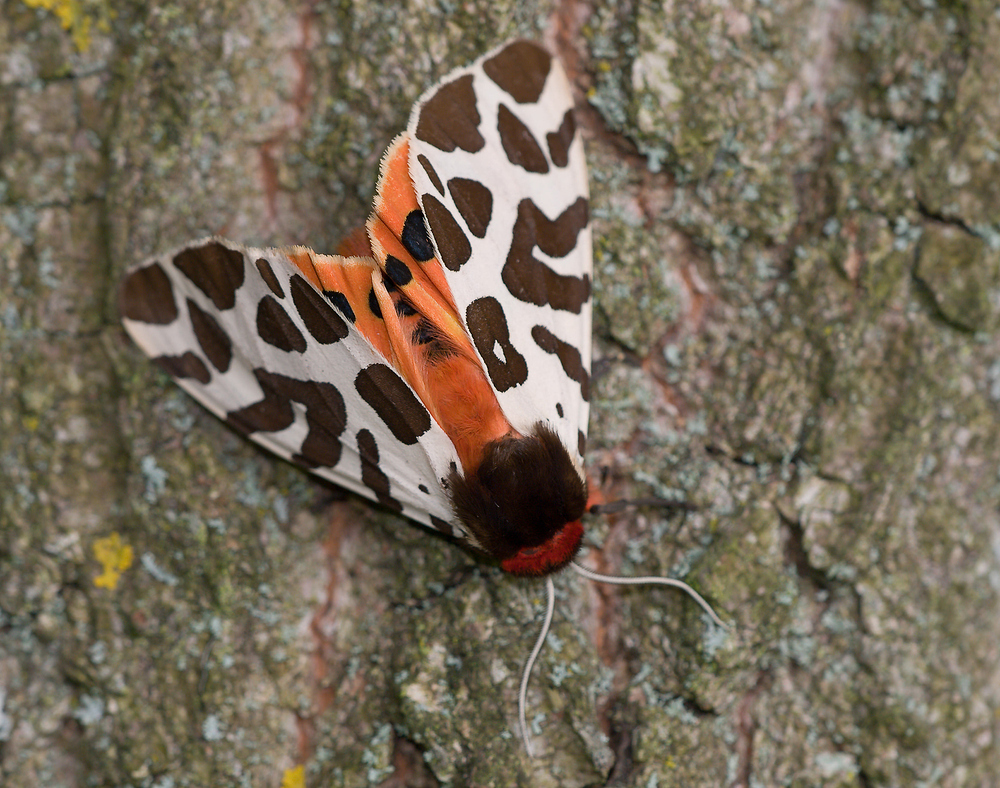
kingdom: Animalia
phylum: Arthropoda
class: Insecta
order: Lepidoptera
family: Erebidae
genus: Arctia
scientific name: Arctia caja
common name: Garden tiger
